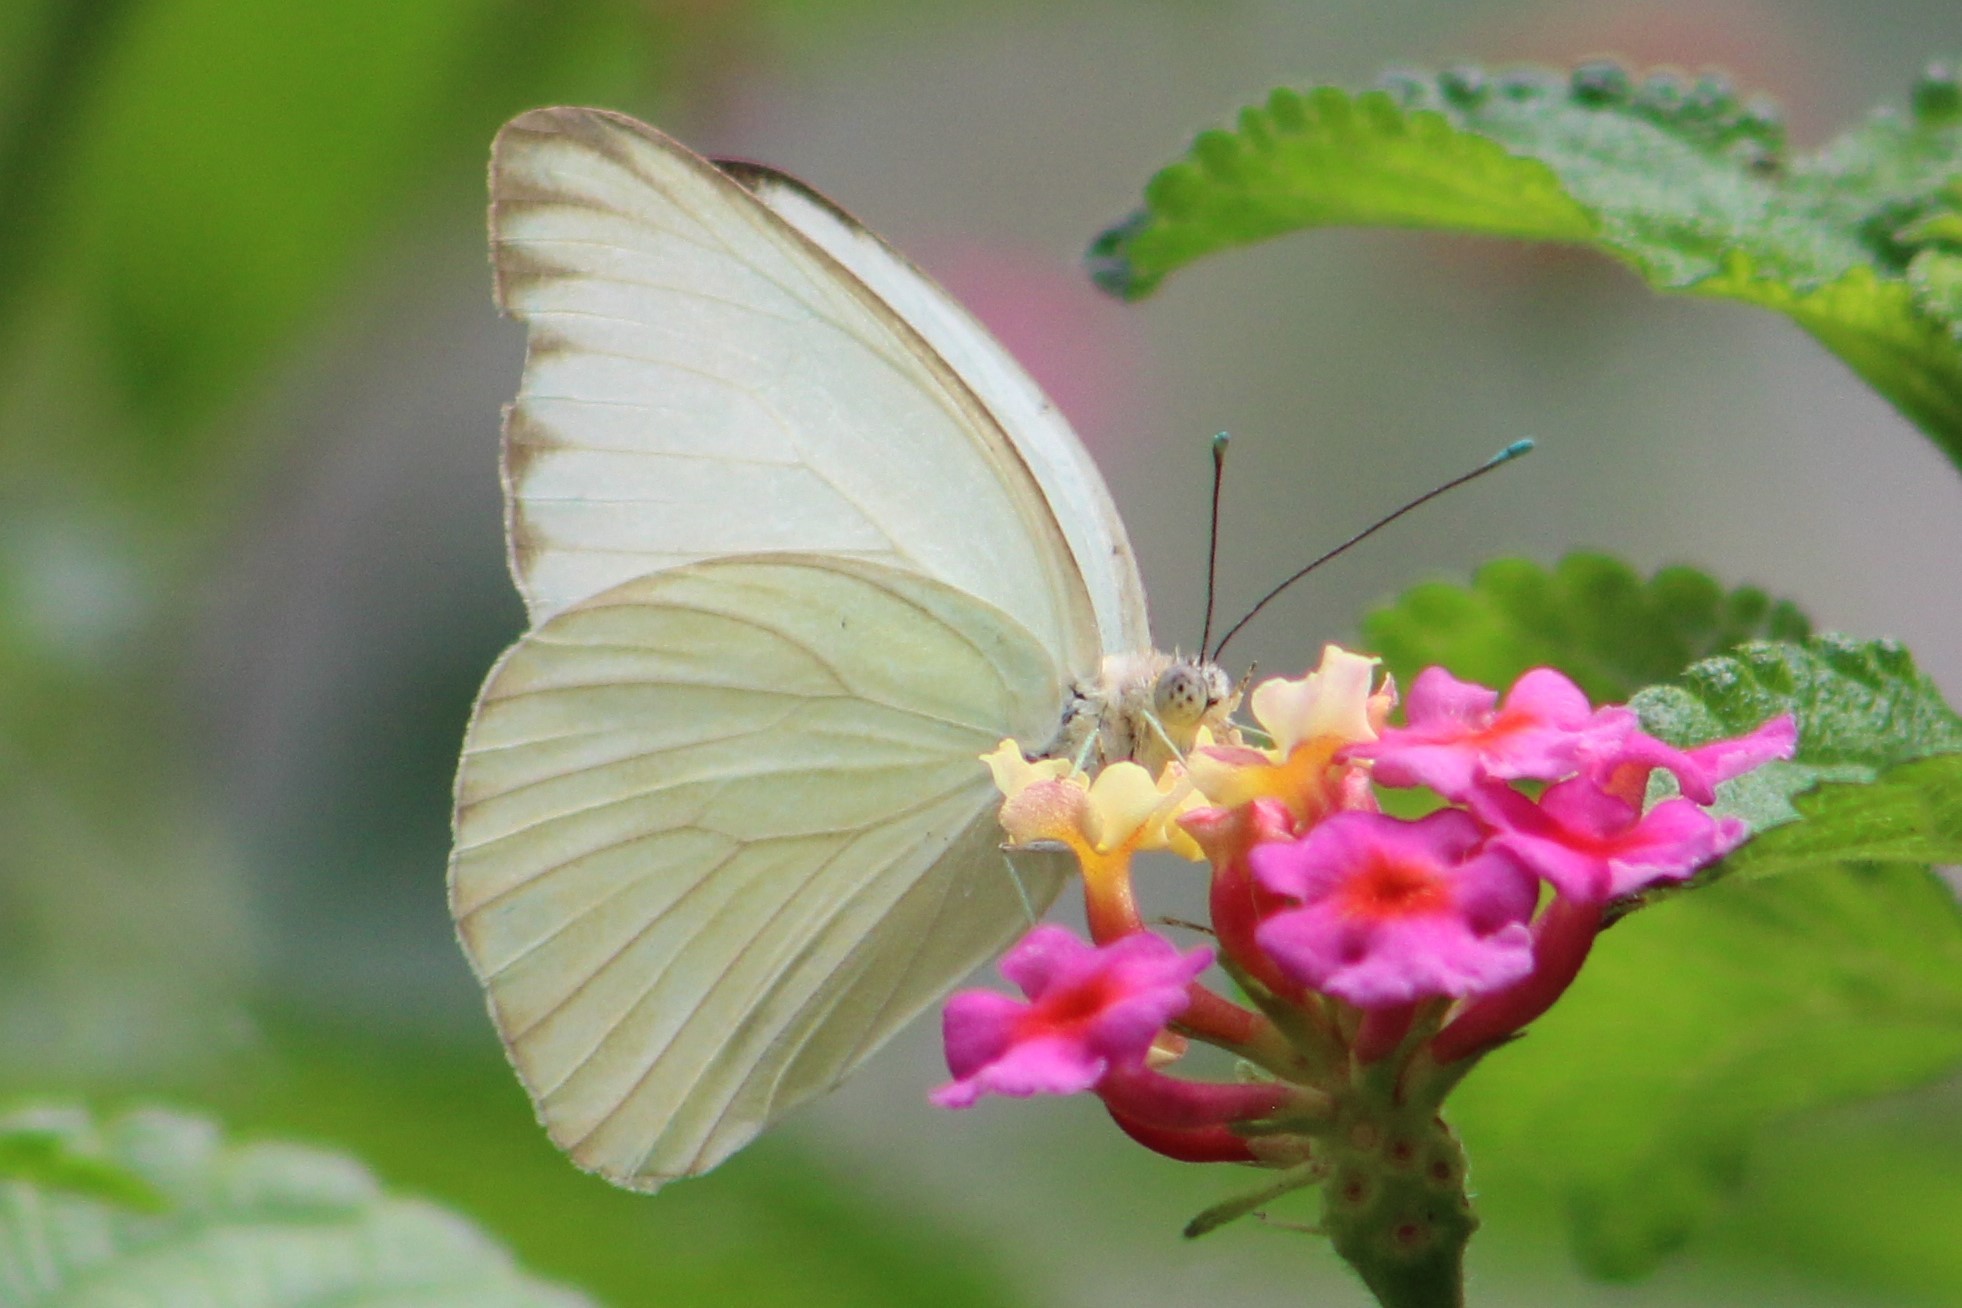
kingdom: Animalia
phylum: Arthropoda
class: Insecta
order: Lepidoptera
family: Pieridae
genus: Ascia
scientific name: Ascia monuste
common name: Great southern white
